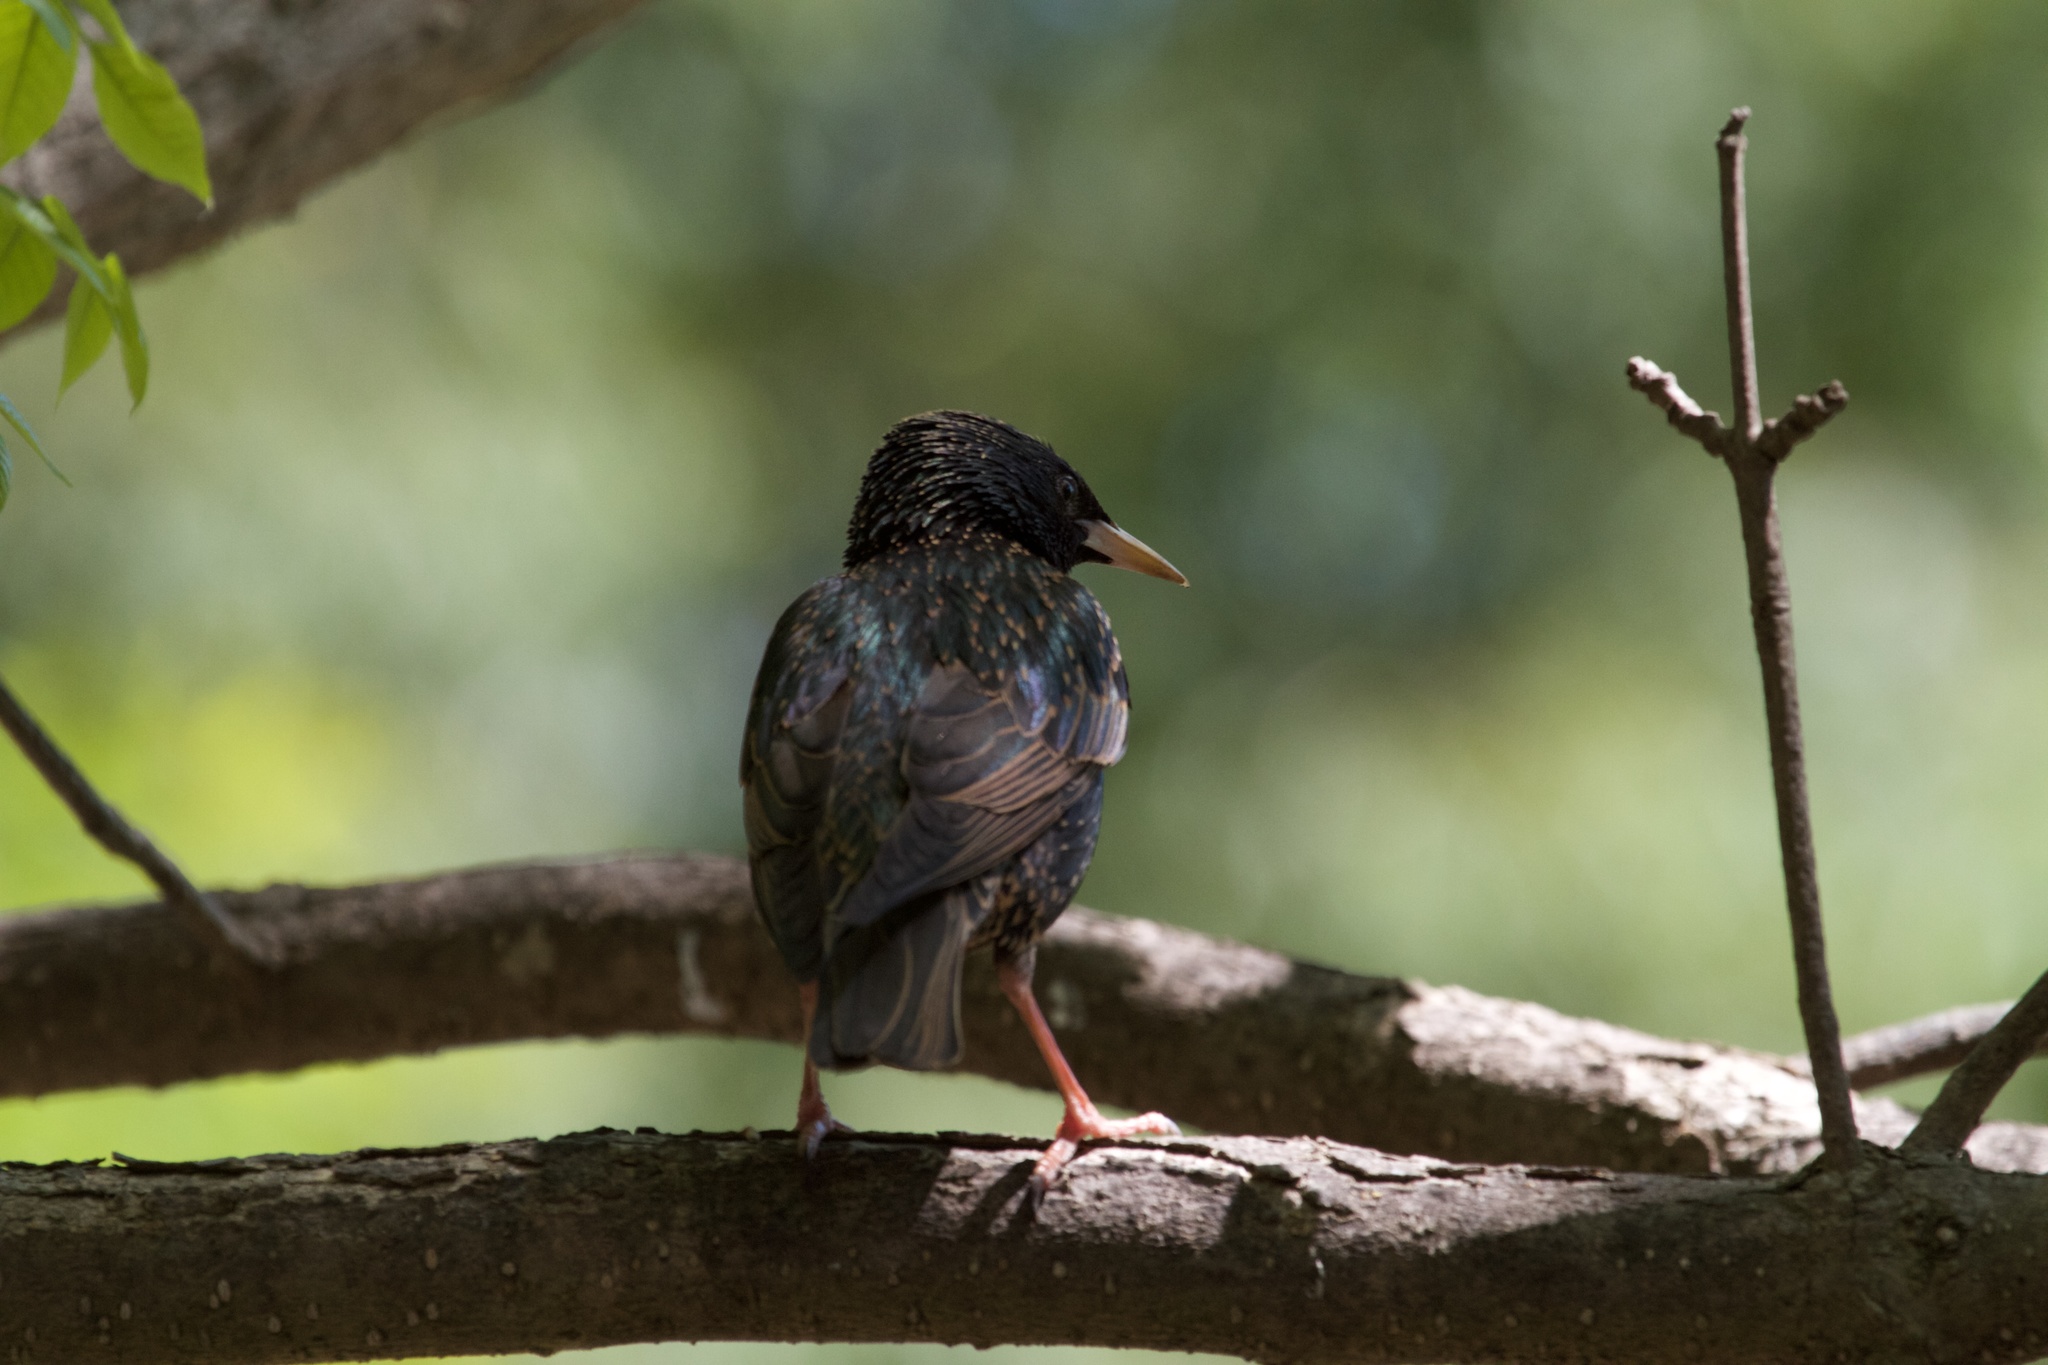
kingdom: Animalia
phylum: Chordata
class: Aves
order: Passeriformes
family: Sturnidae
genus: Sturnus
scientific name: Sturnus vulgaris
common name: Common starling
